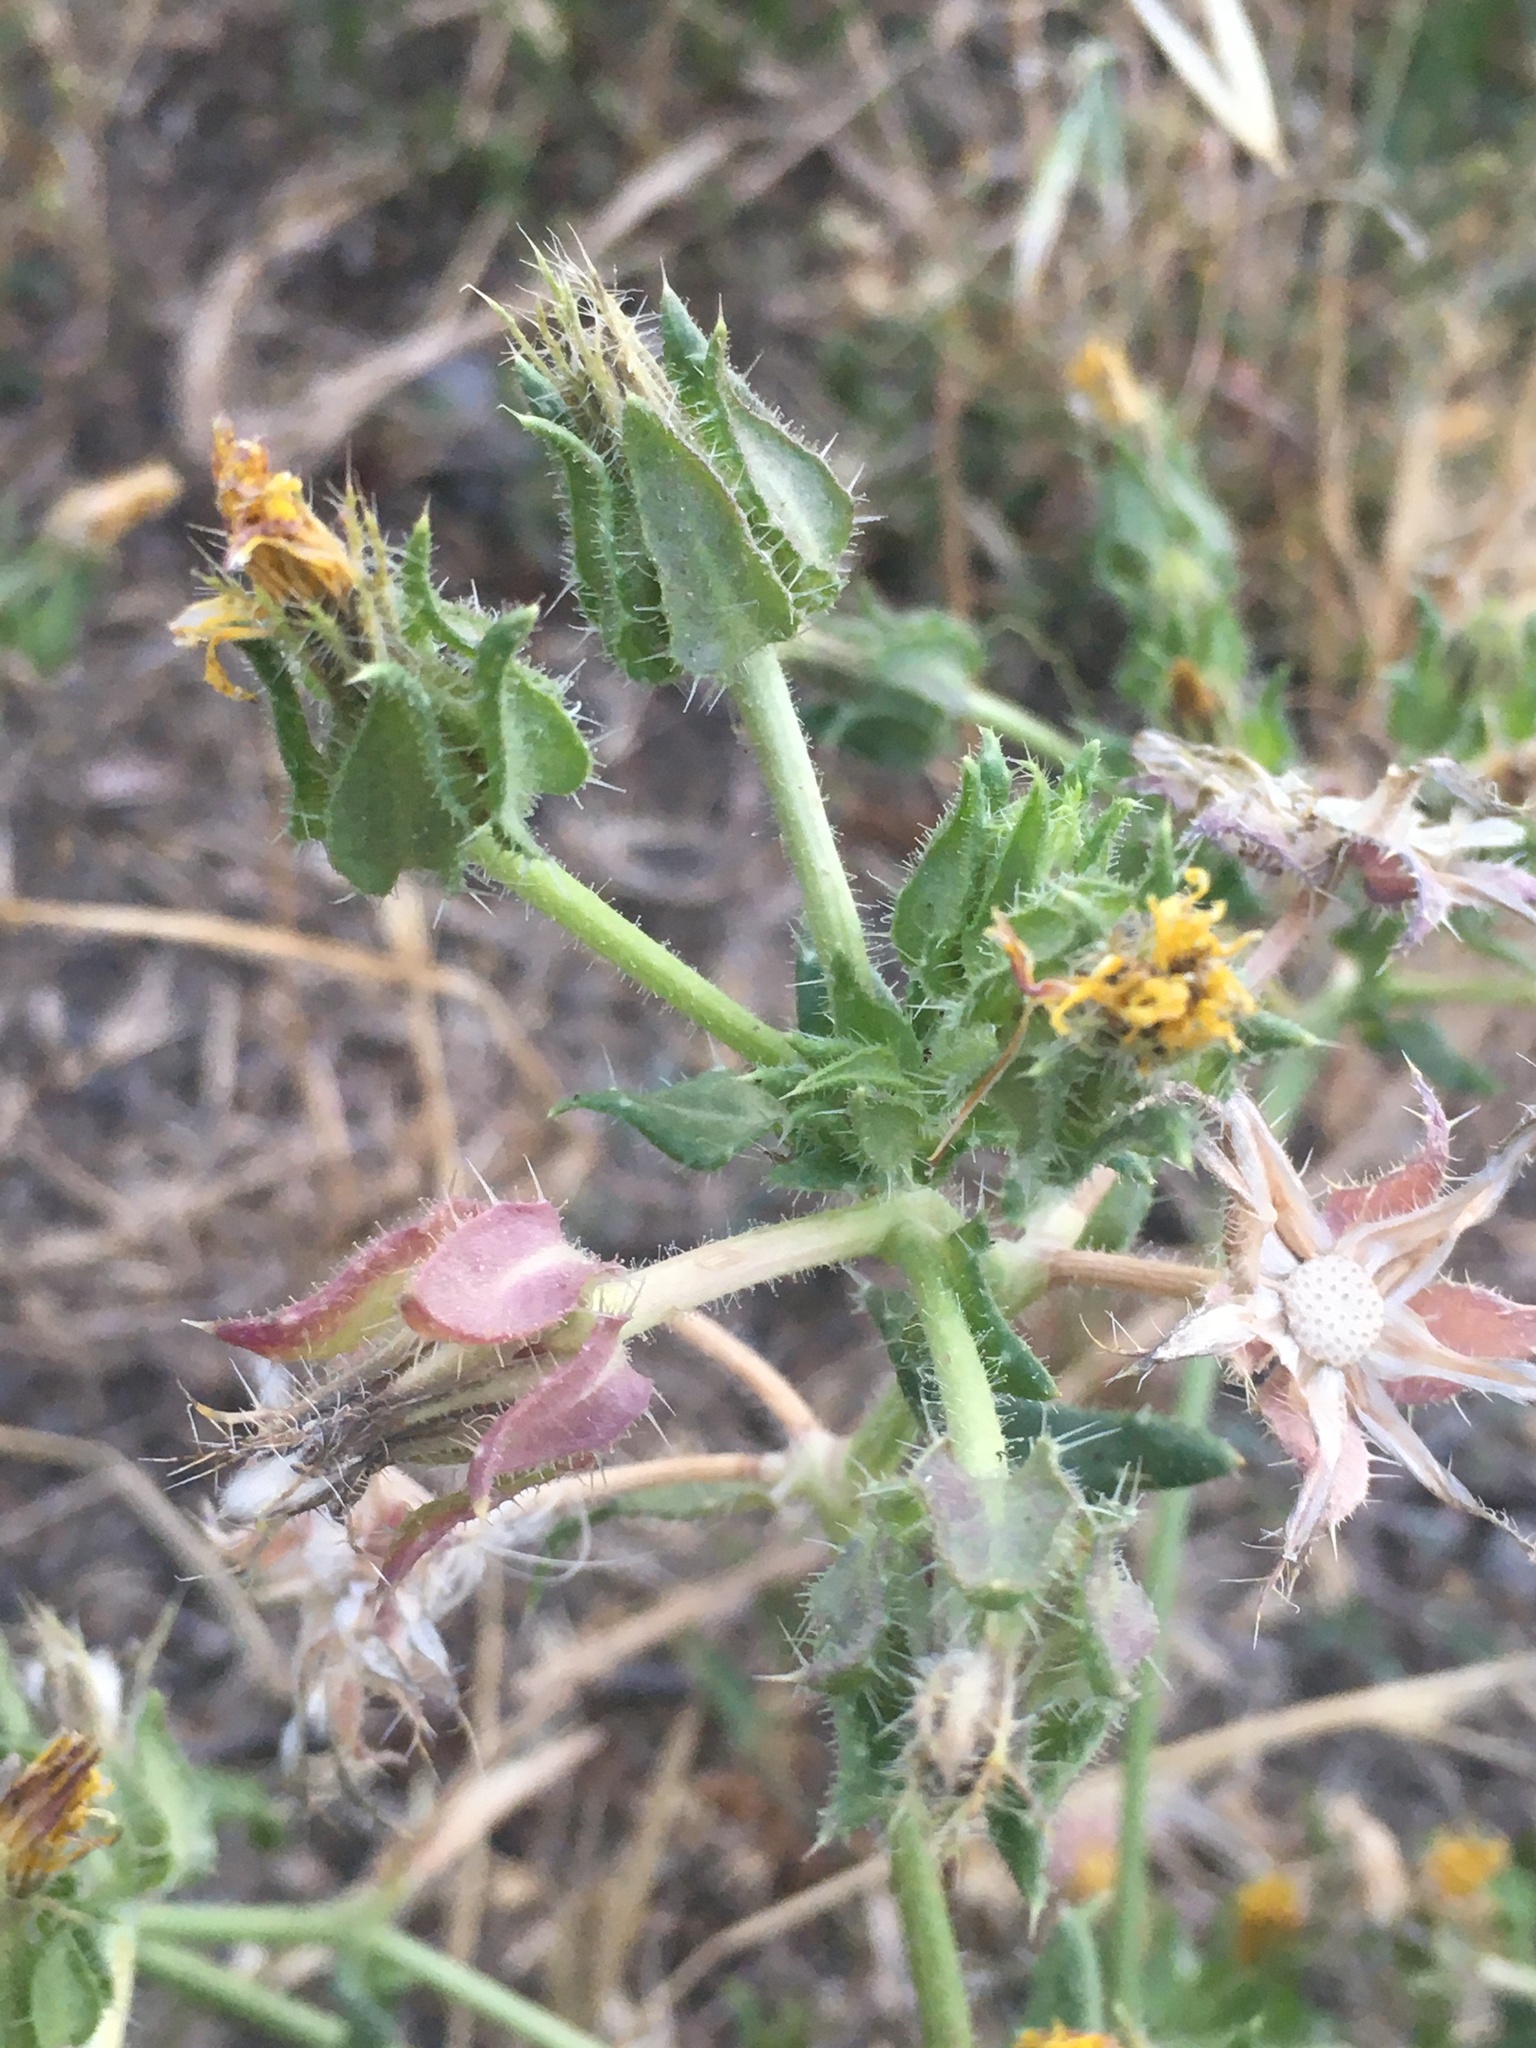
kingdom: Plantae
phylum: Tracheophyta
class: Magnoliopsida
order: Asterales
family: Asteraceae
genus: Helminthotheca
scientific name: Helminthotheca echioides
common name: Ox-tongue
